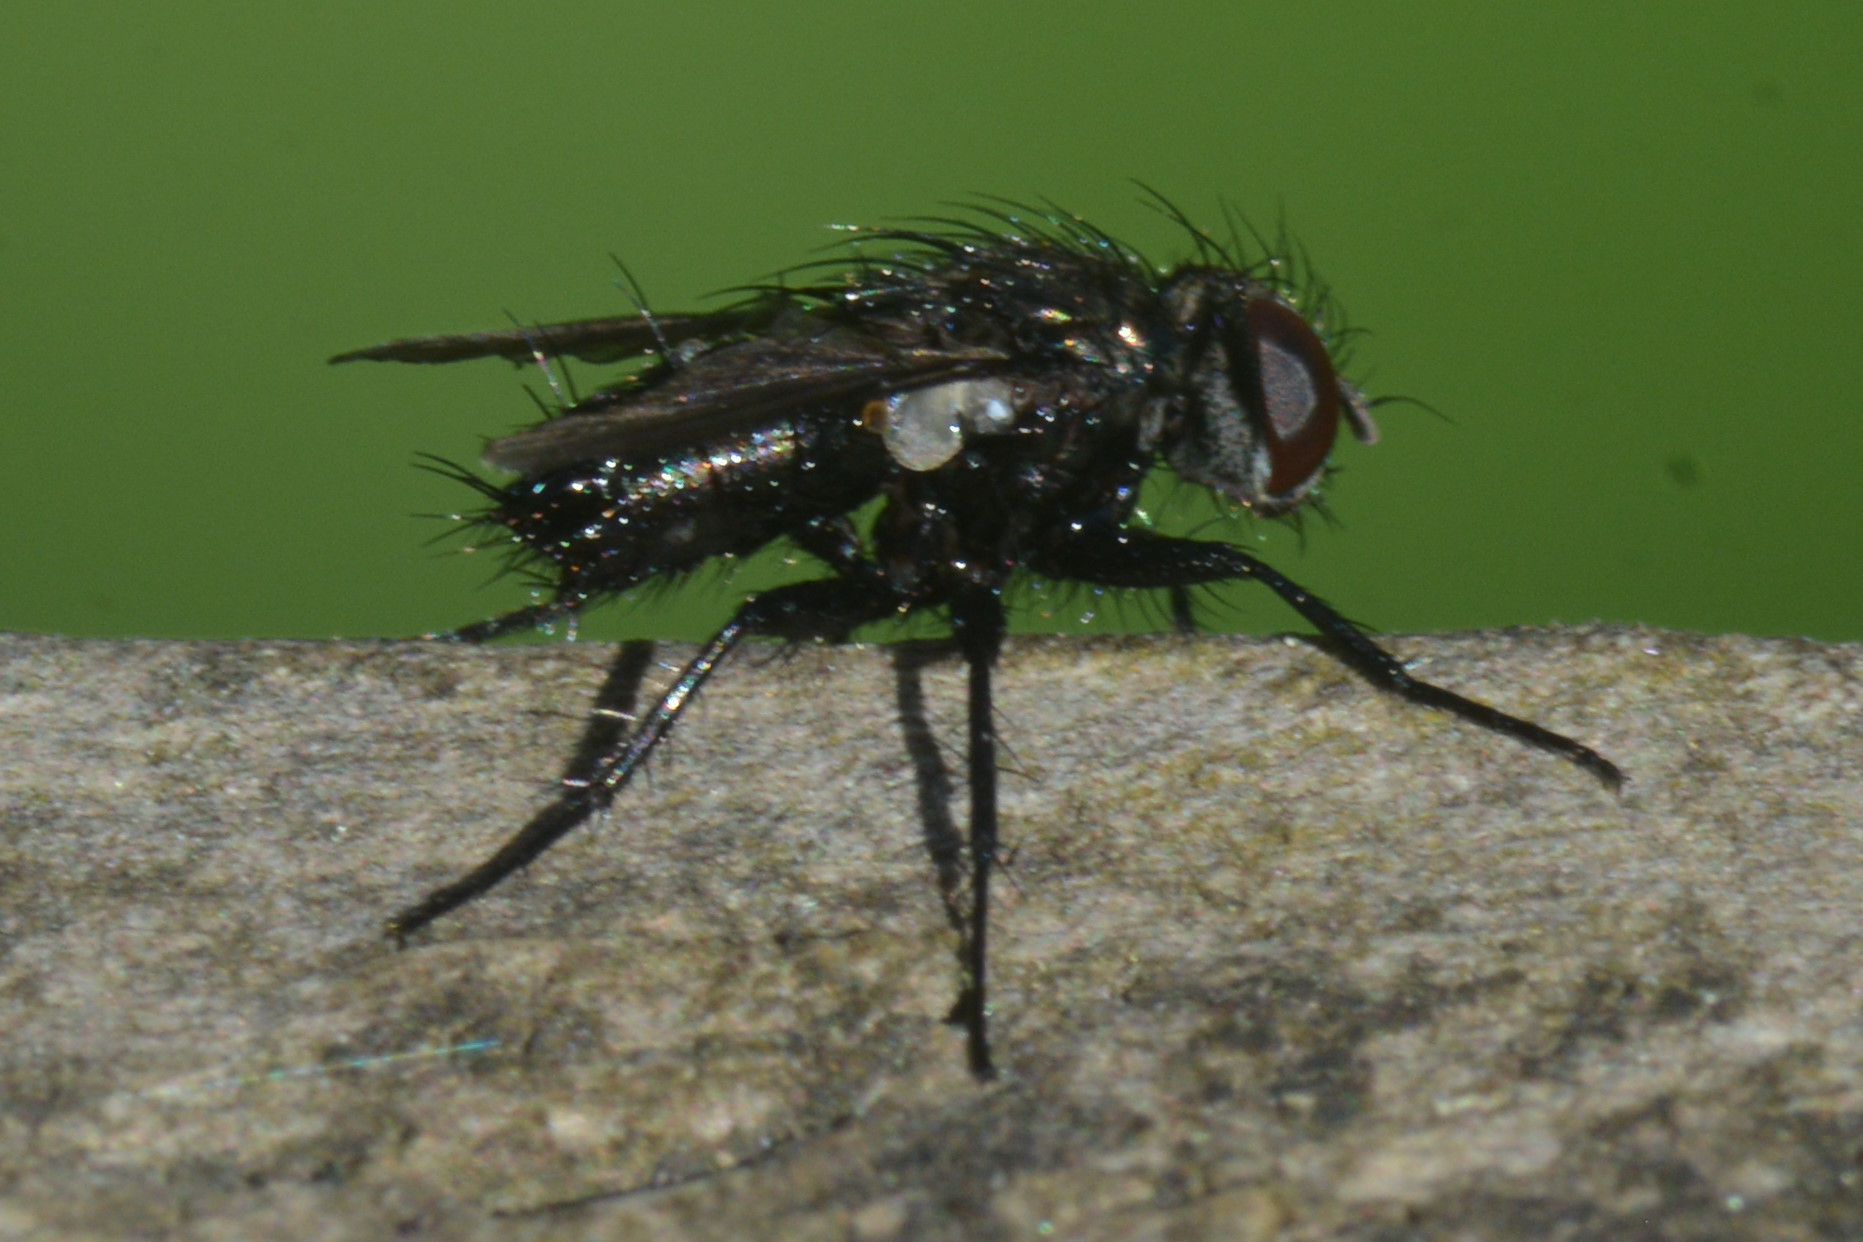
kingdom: Animalia
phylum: Arthropoda
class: Insecta
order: Diptera
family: Calliphoridae
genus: Rhinophora
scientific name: Rhinophora lepida
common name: Pouting woodlouse-fly
